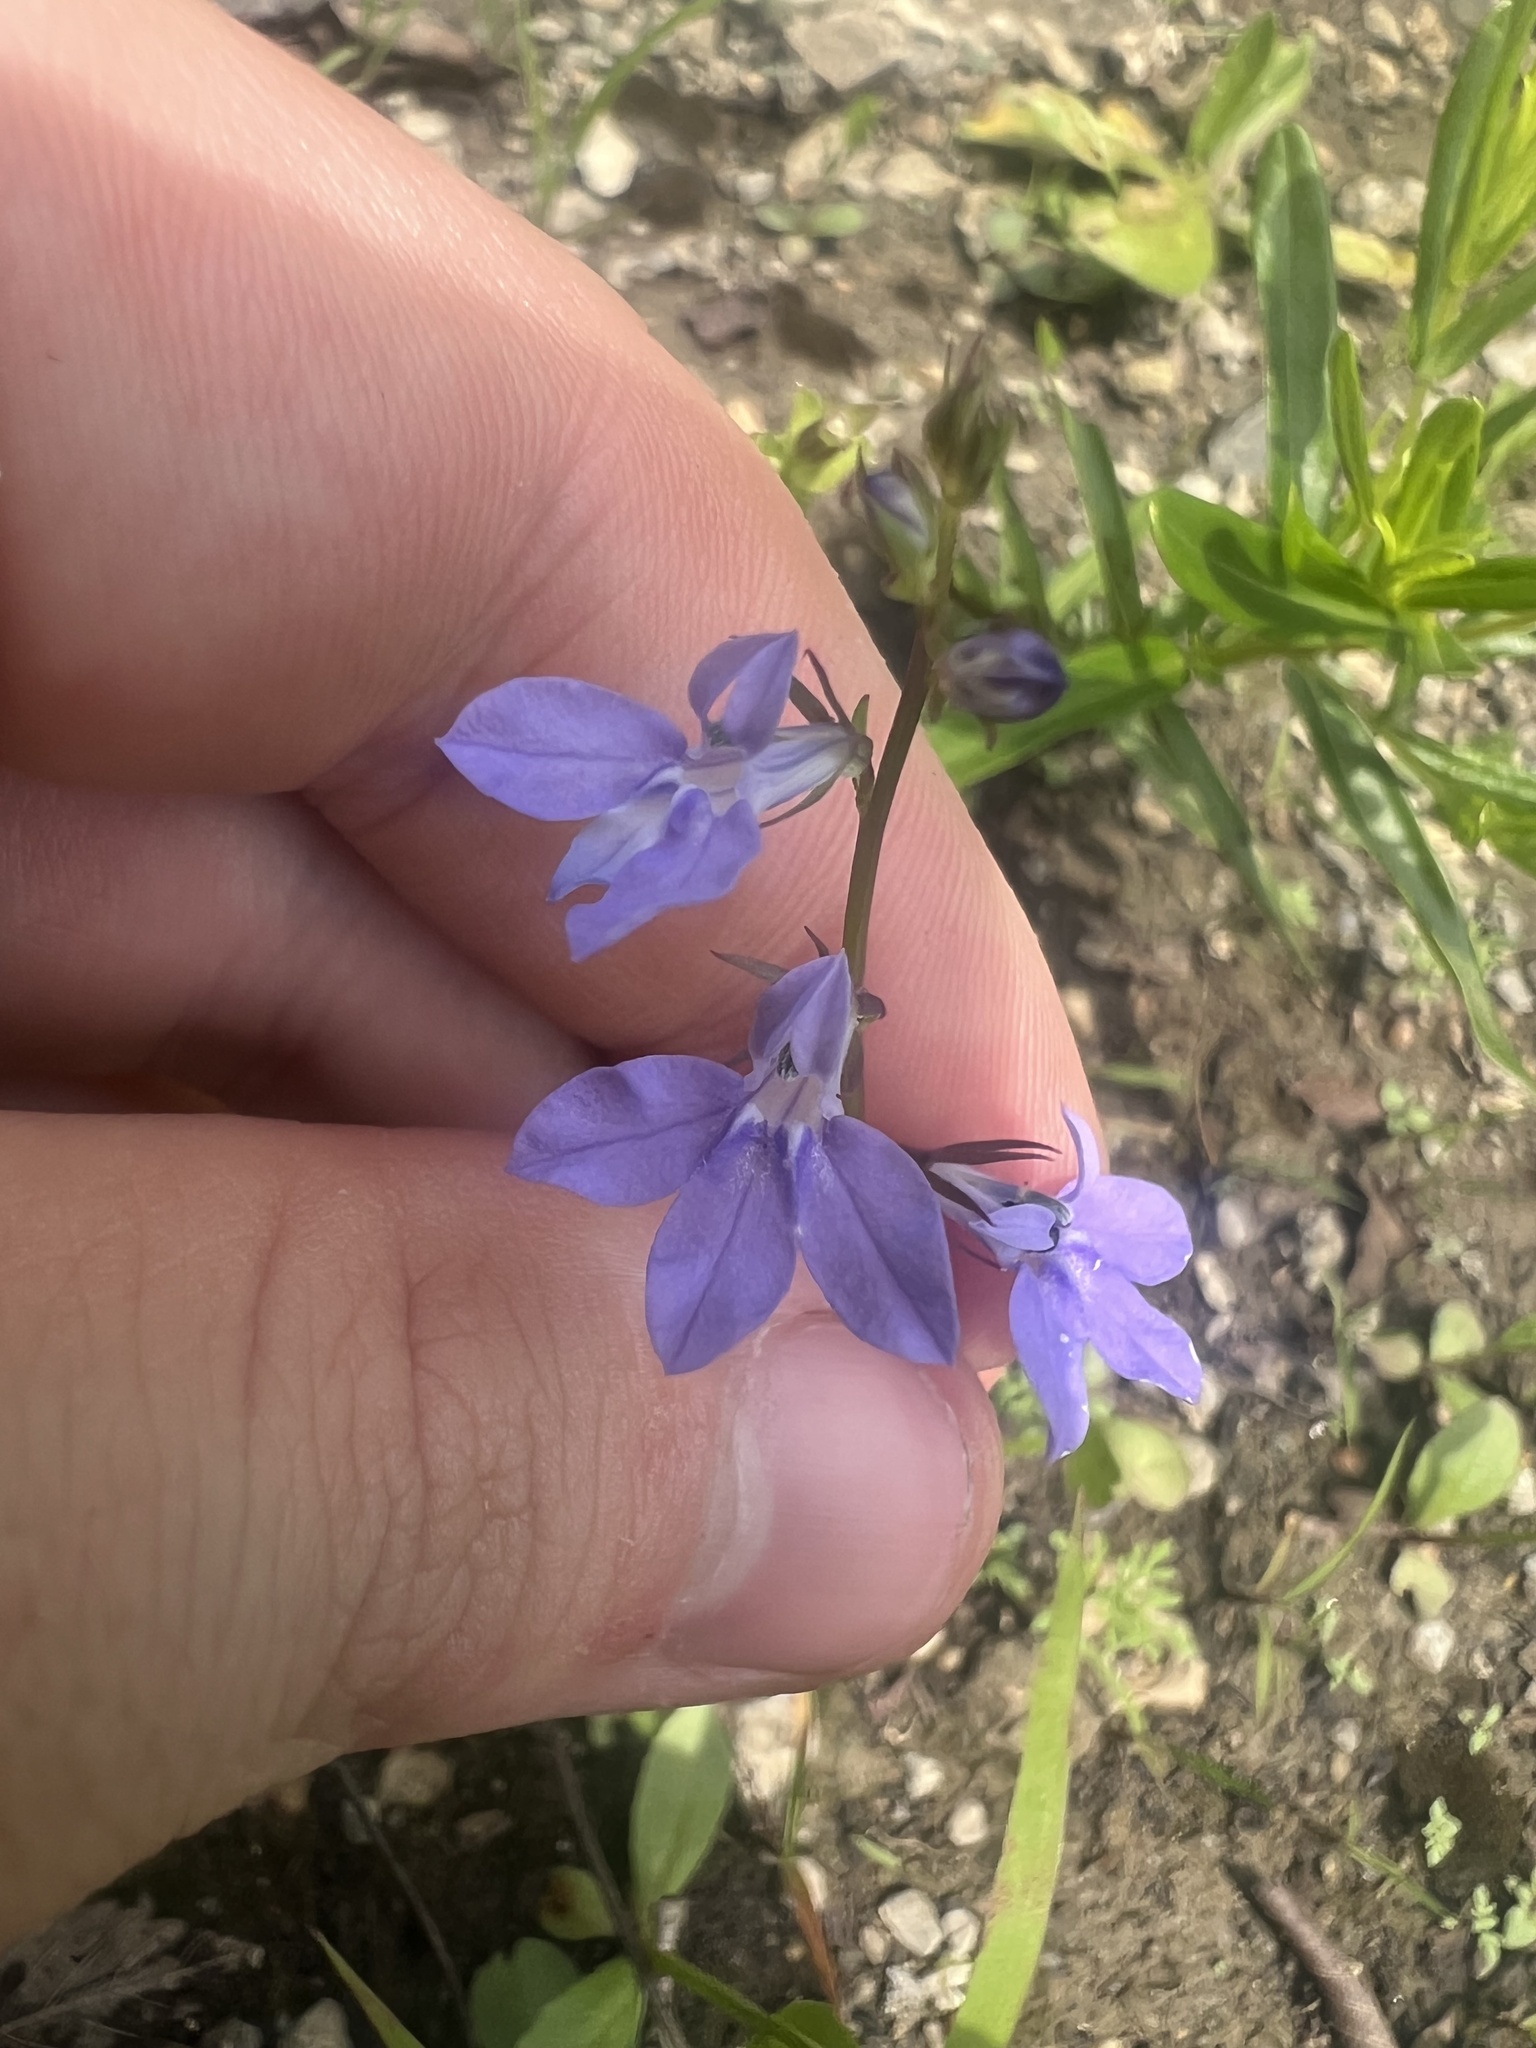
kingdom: Plantae
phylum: Tracheophyta
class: Magnoliopsida
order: Asterales
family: Campanulaceae
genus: Lobelia
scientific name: Lobelia gattingeri
